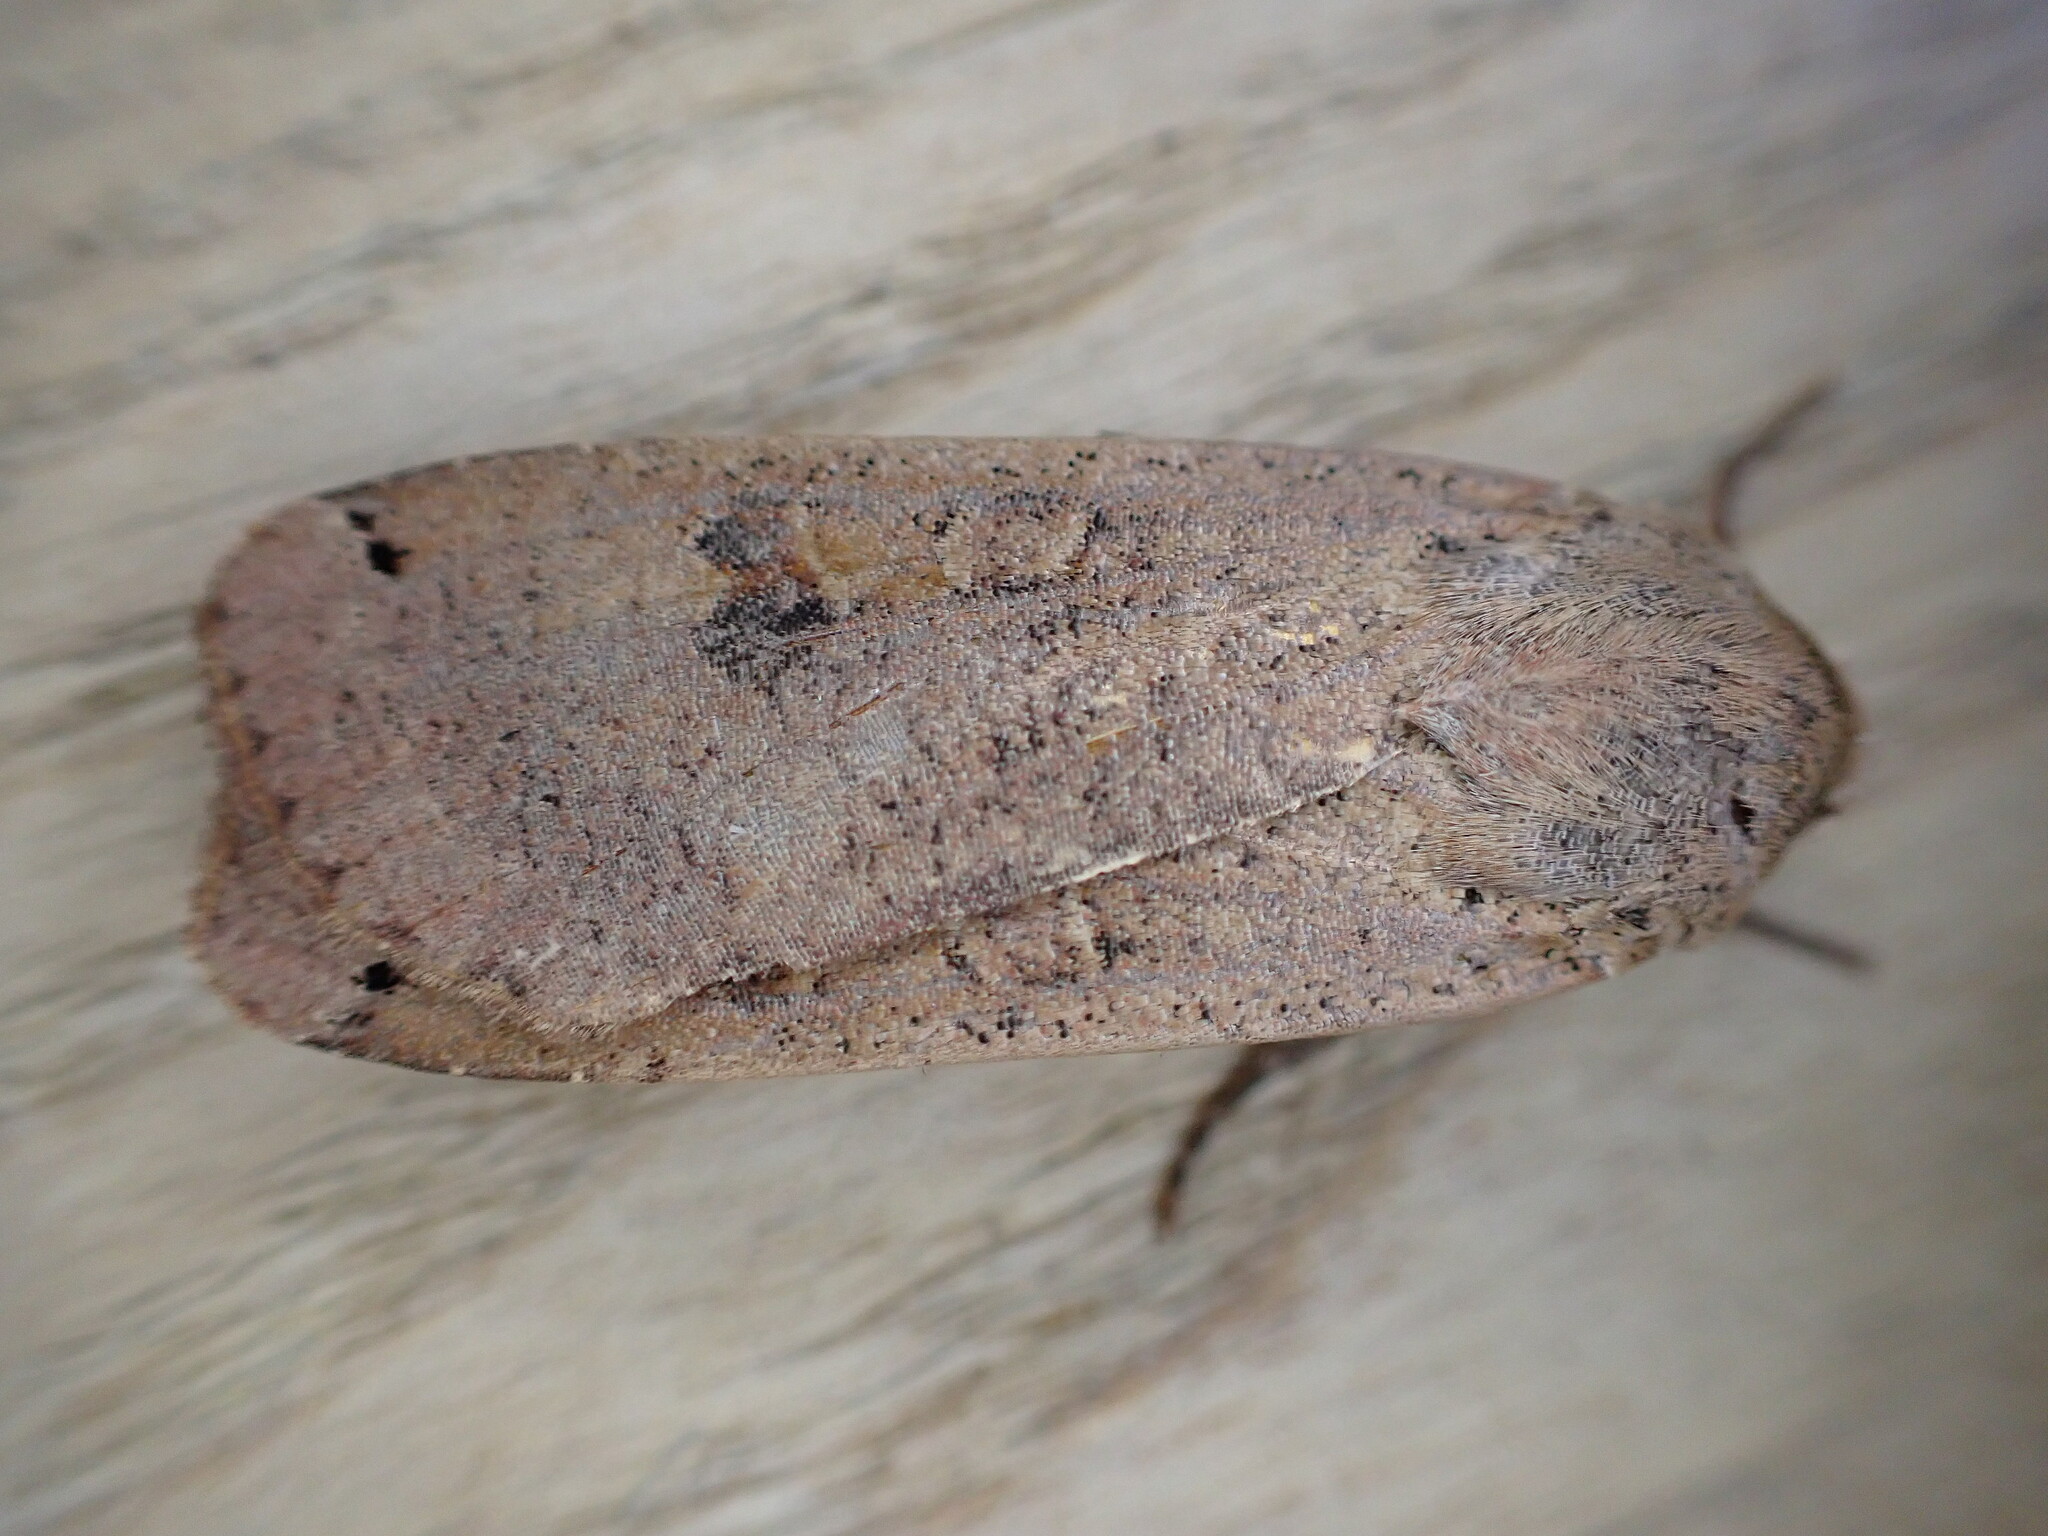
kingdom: Animalia
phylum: Arthropoda
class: Insecta
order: Lepidoptera
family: Noctuidae
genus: Noctua
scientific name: Noctua pronuba
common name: Large yellow underwing
